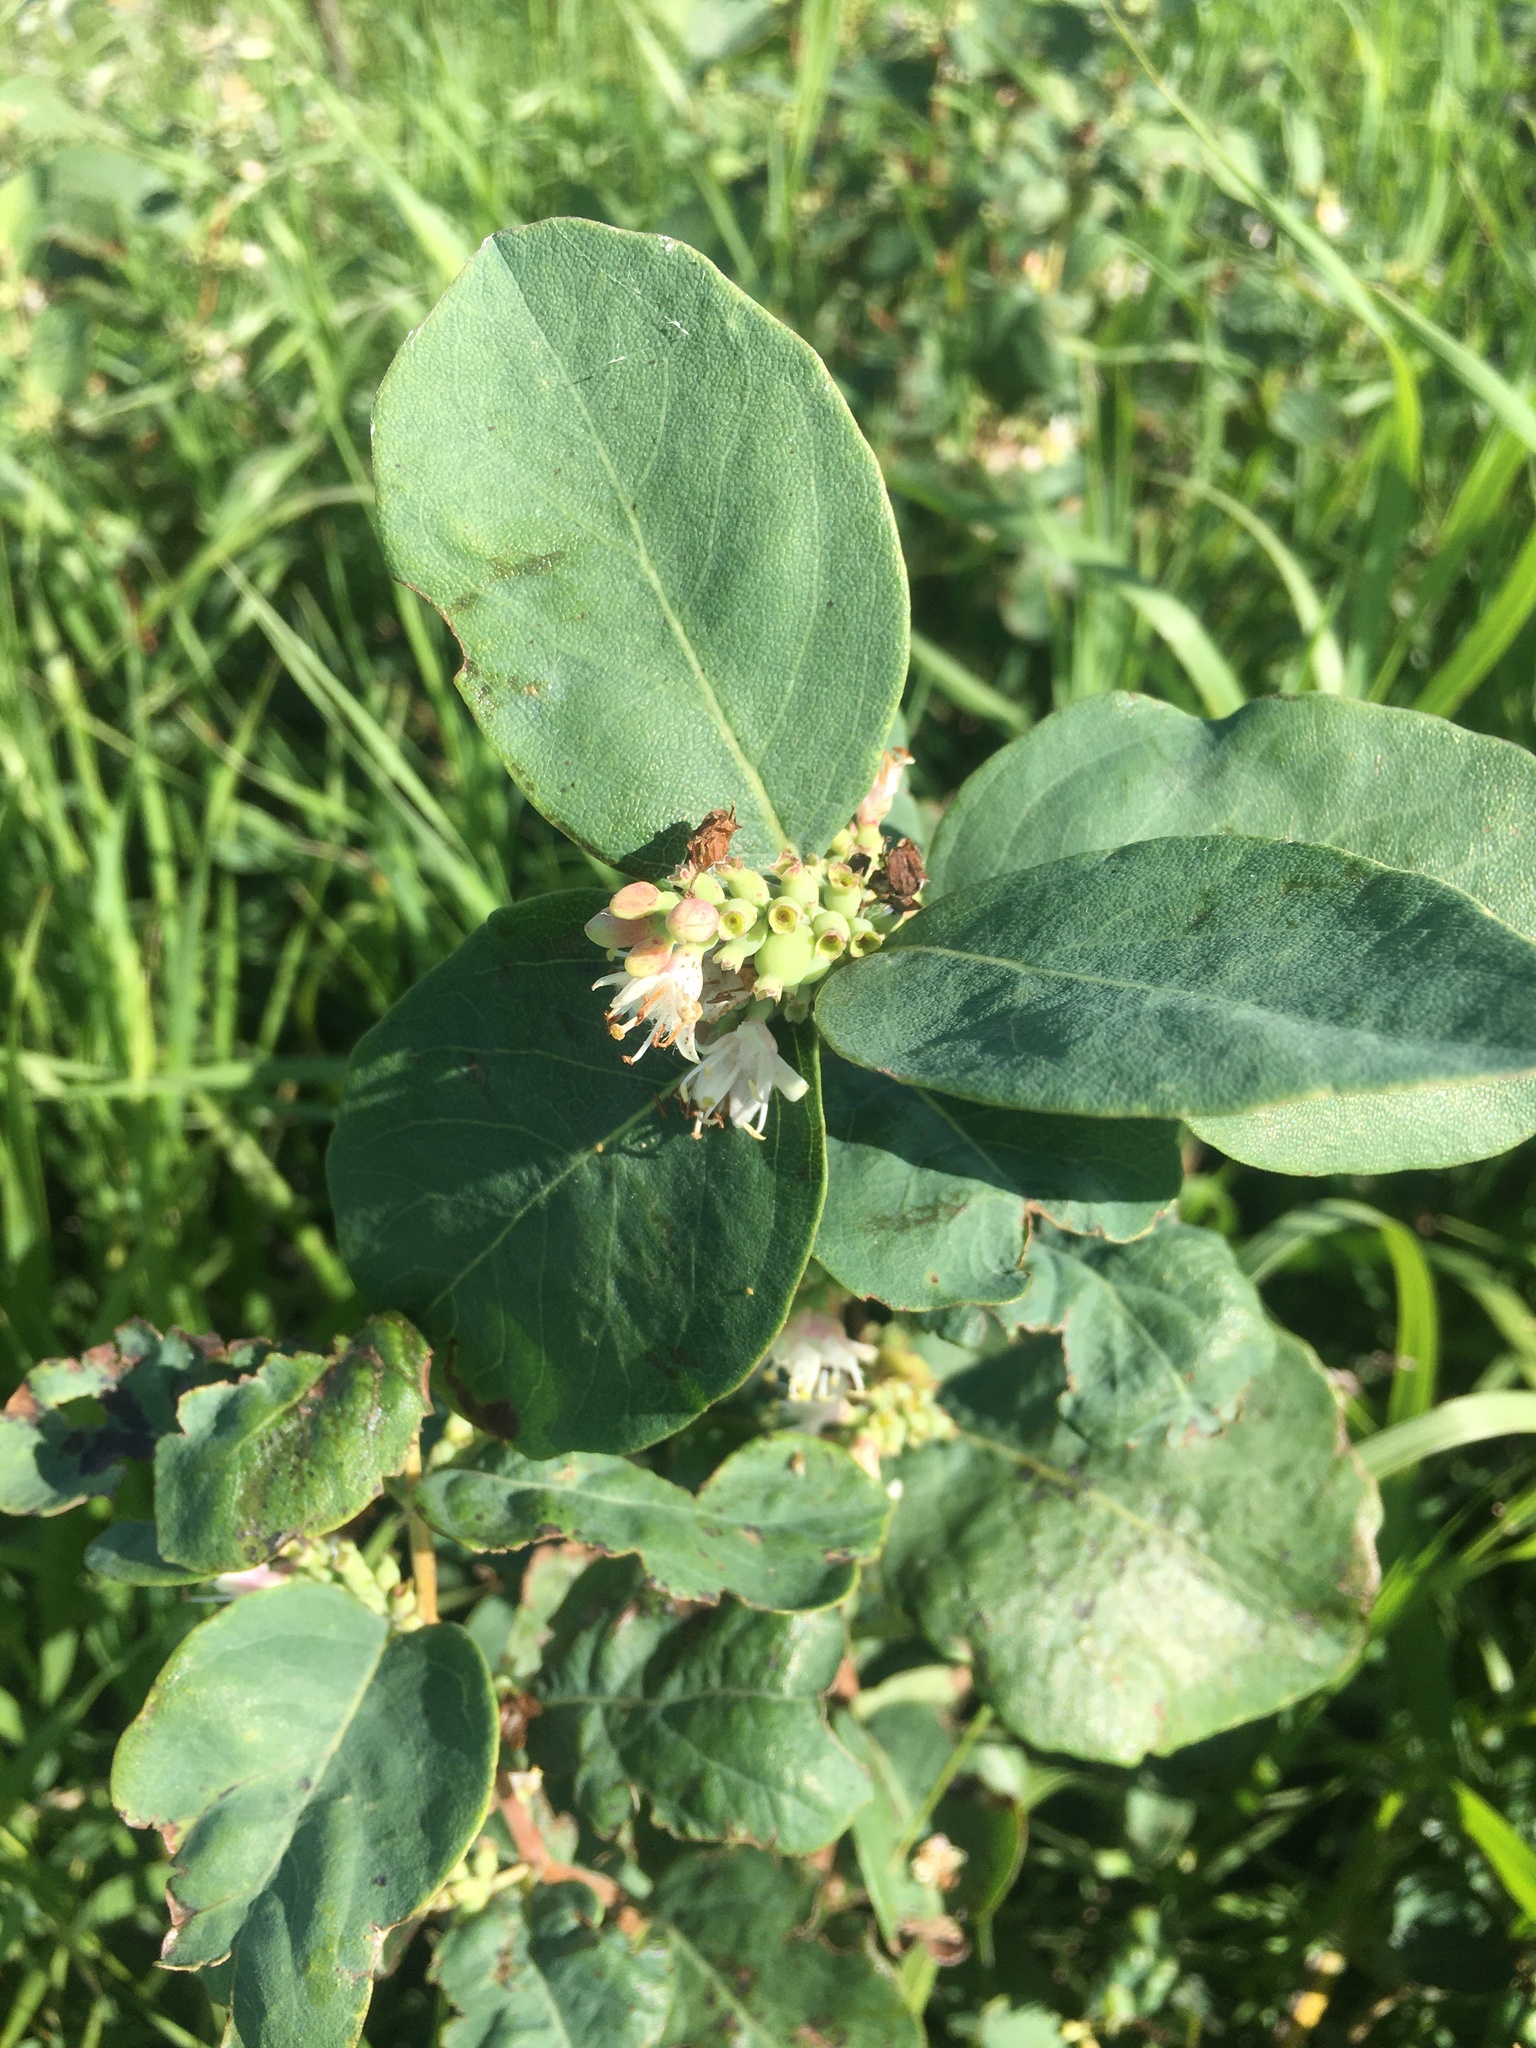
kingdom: Plantae
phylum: Tracheophyta
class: Magnoliopsida
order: Dipsacales
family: Caprifoliaceae
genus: Symphoricarpos
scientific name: Symphoricarpos occidentalis
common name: Wolfberry
